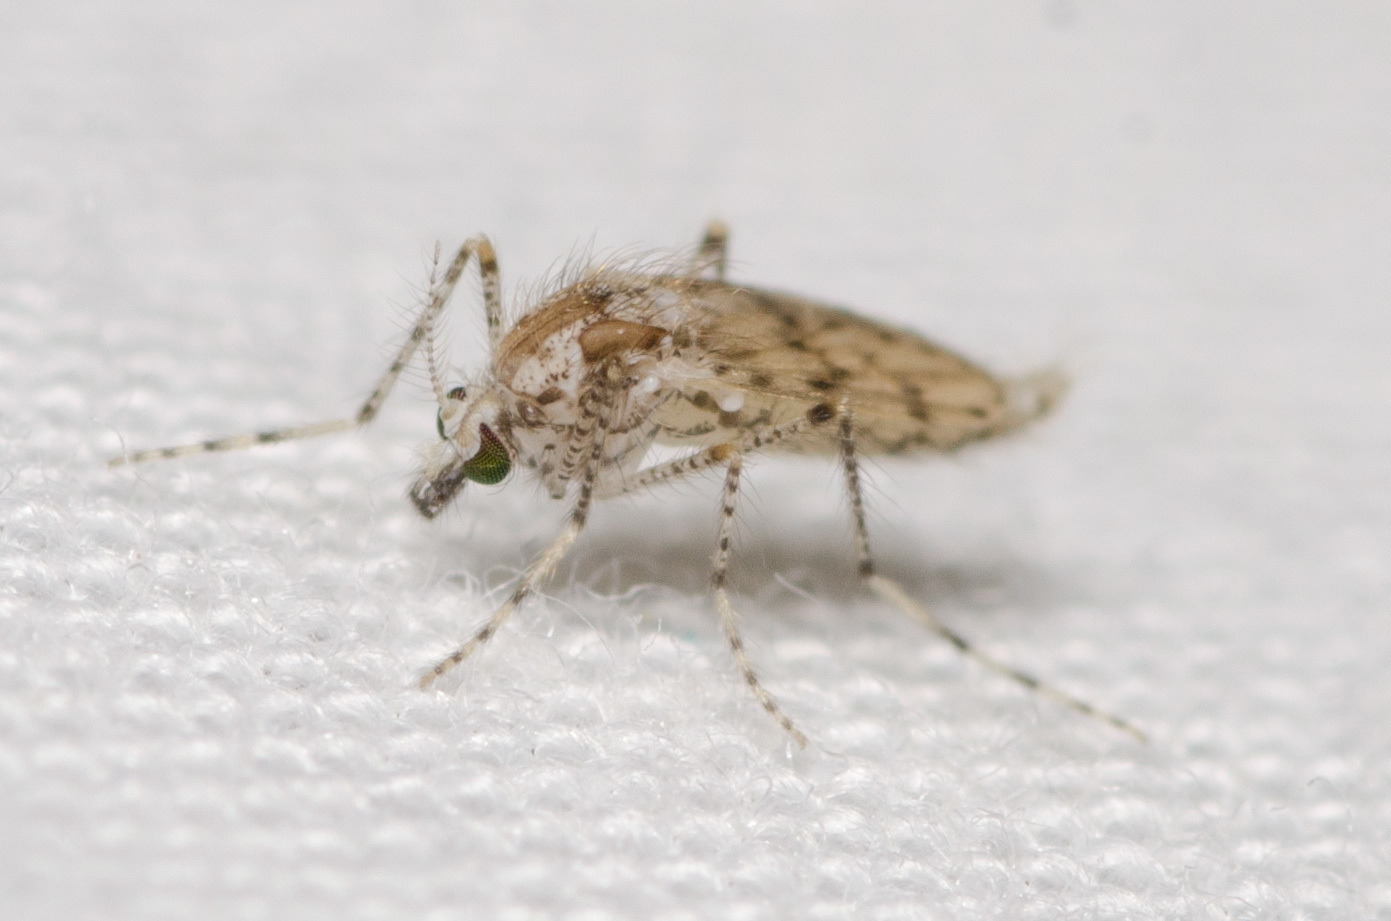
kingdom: Animalia
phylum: Arthropoda
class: Insecta
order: Diptera
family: Chaoboridae
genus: Chaoborus
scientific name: Chaoborus punctipennis
